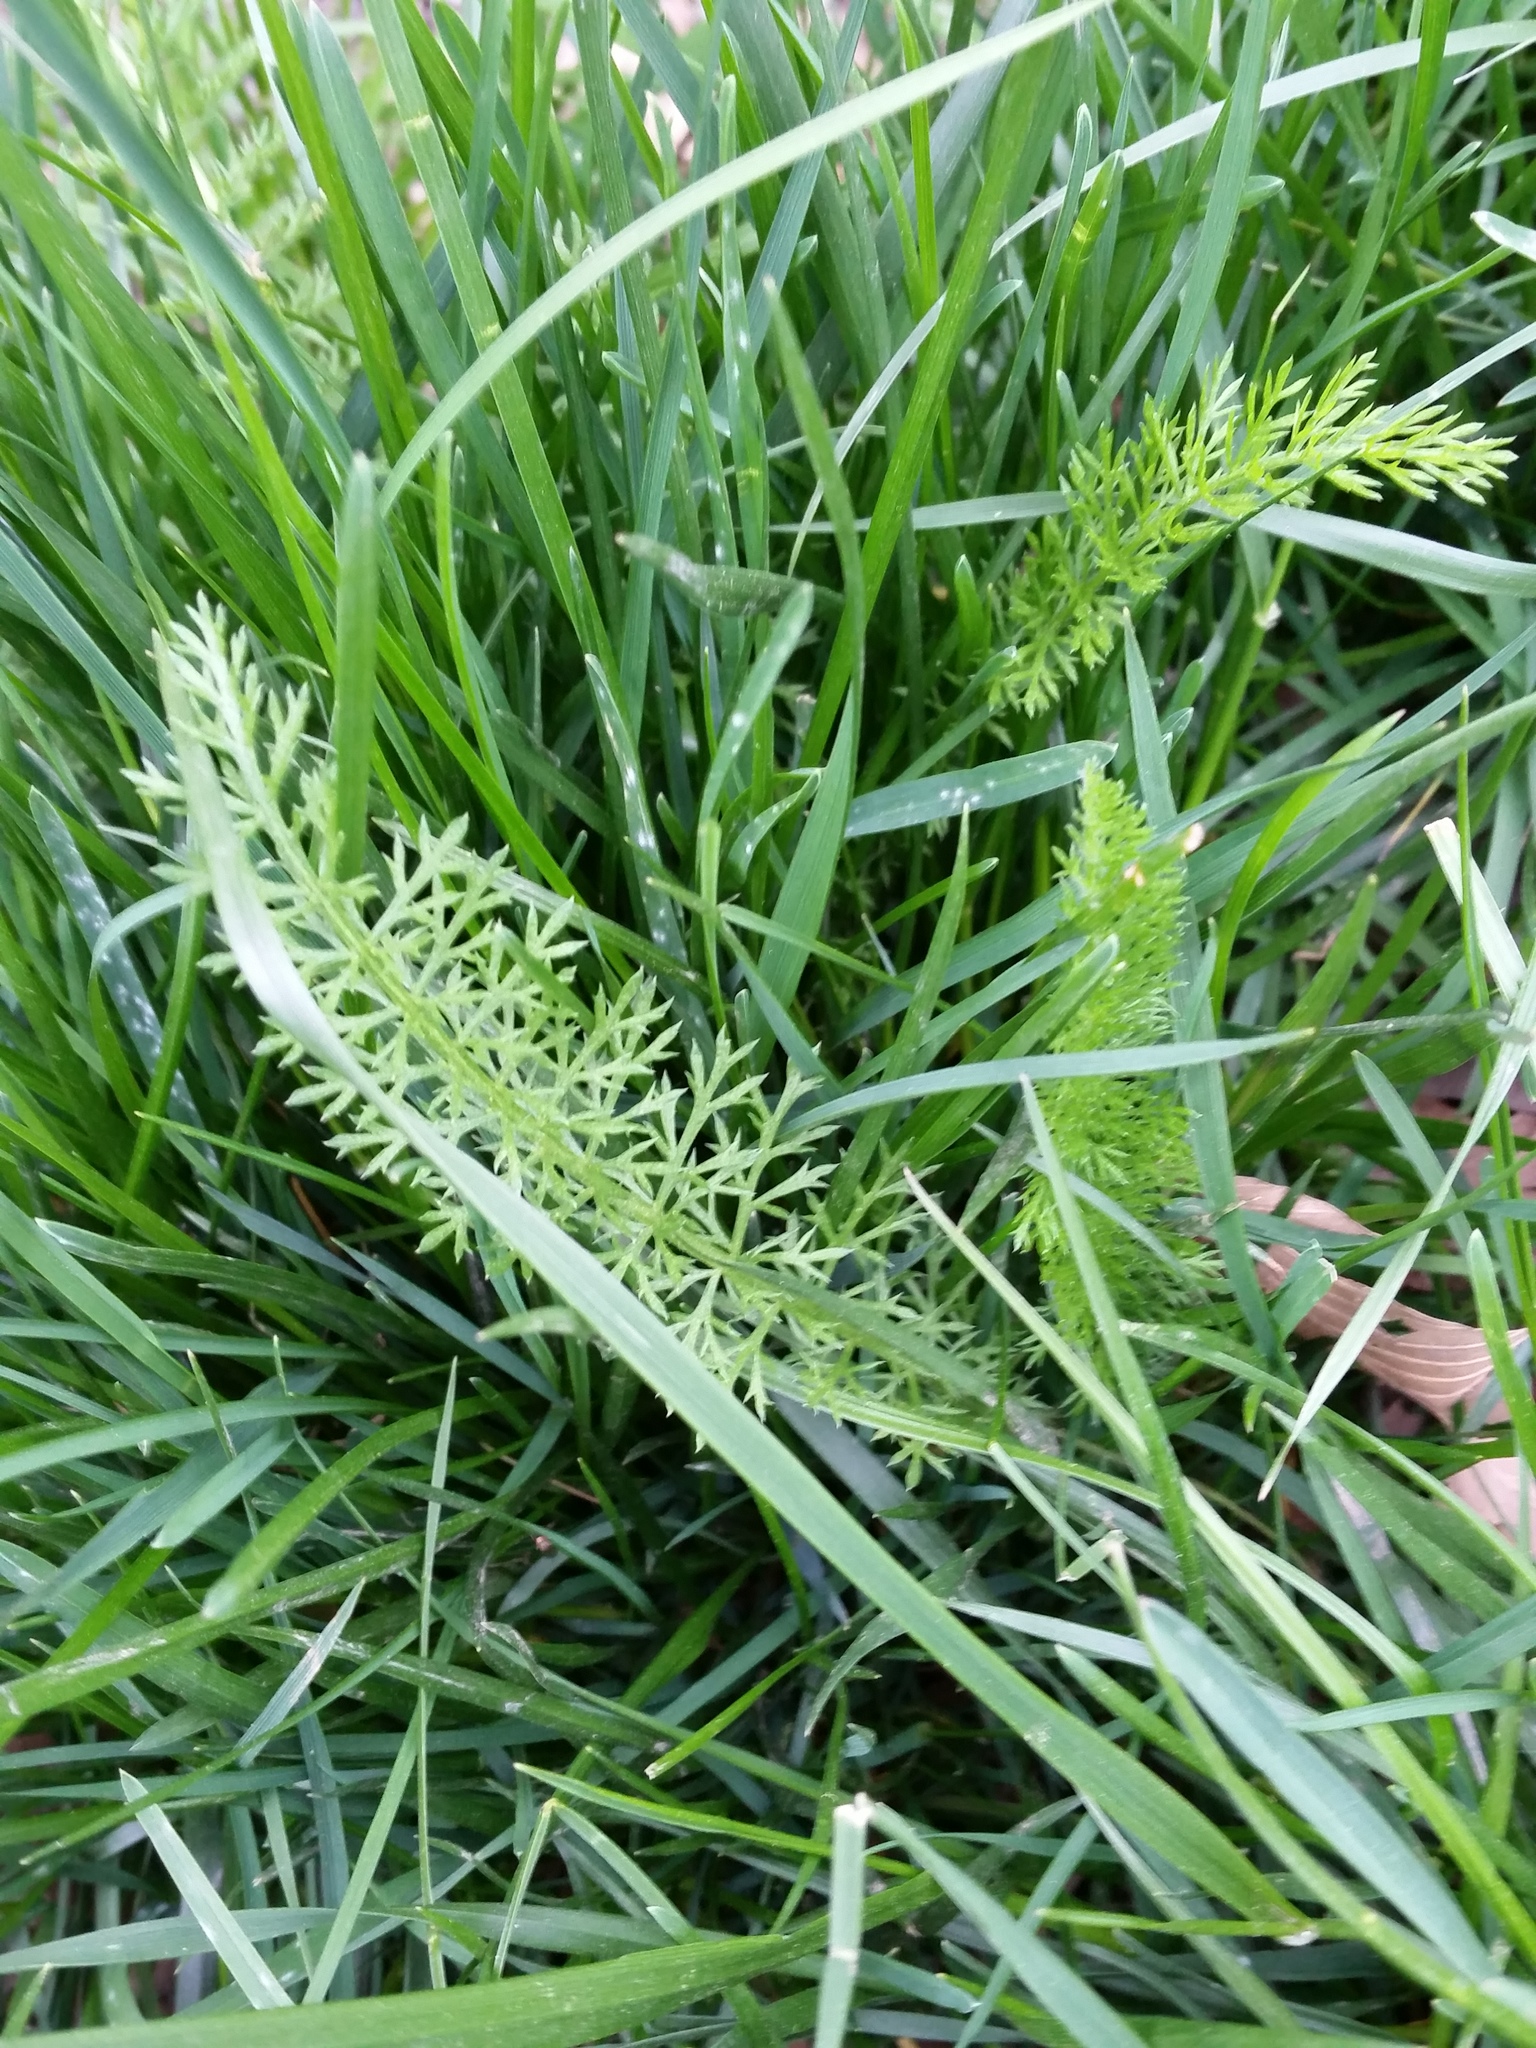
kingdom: Plantae
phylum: Tracheophyta
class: Magnoliopsida
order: Asterales
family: Asteraceae
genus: Achillea
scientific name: Achillea millefolium
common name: Yarrow
